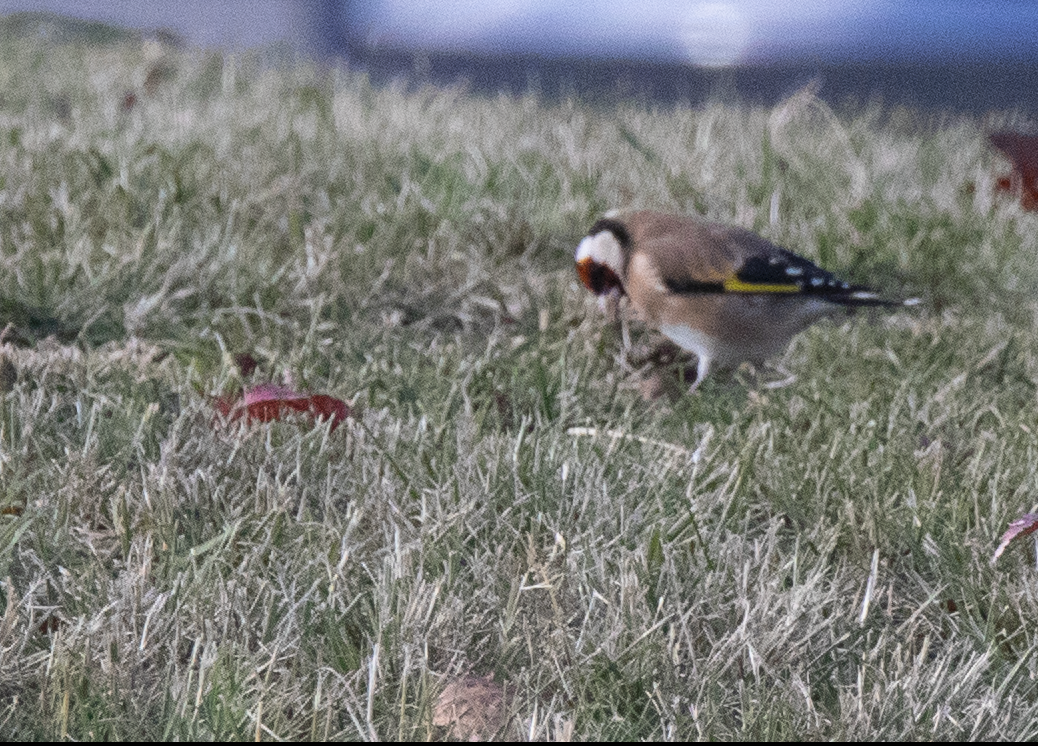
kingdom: Animalia
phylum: Chordata
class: Aves
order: Passeriformes
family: Fringillidae
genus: Carduelis
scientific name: Carduelis carduelis
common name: European goldfinch
